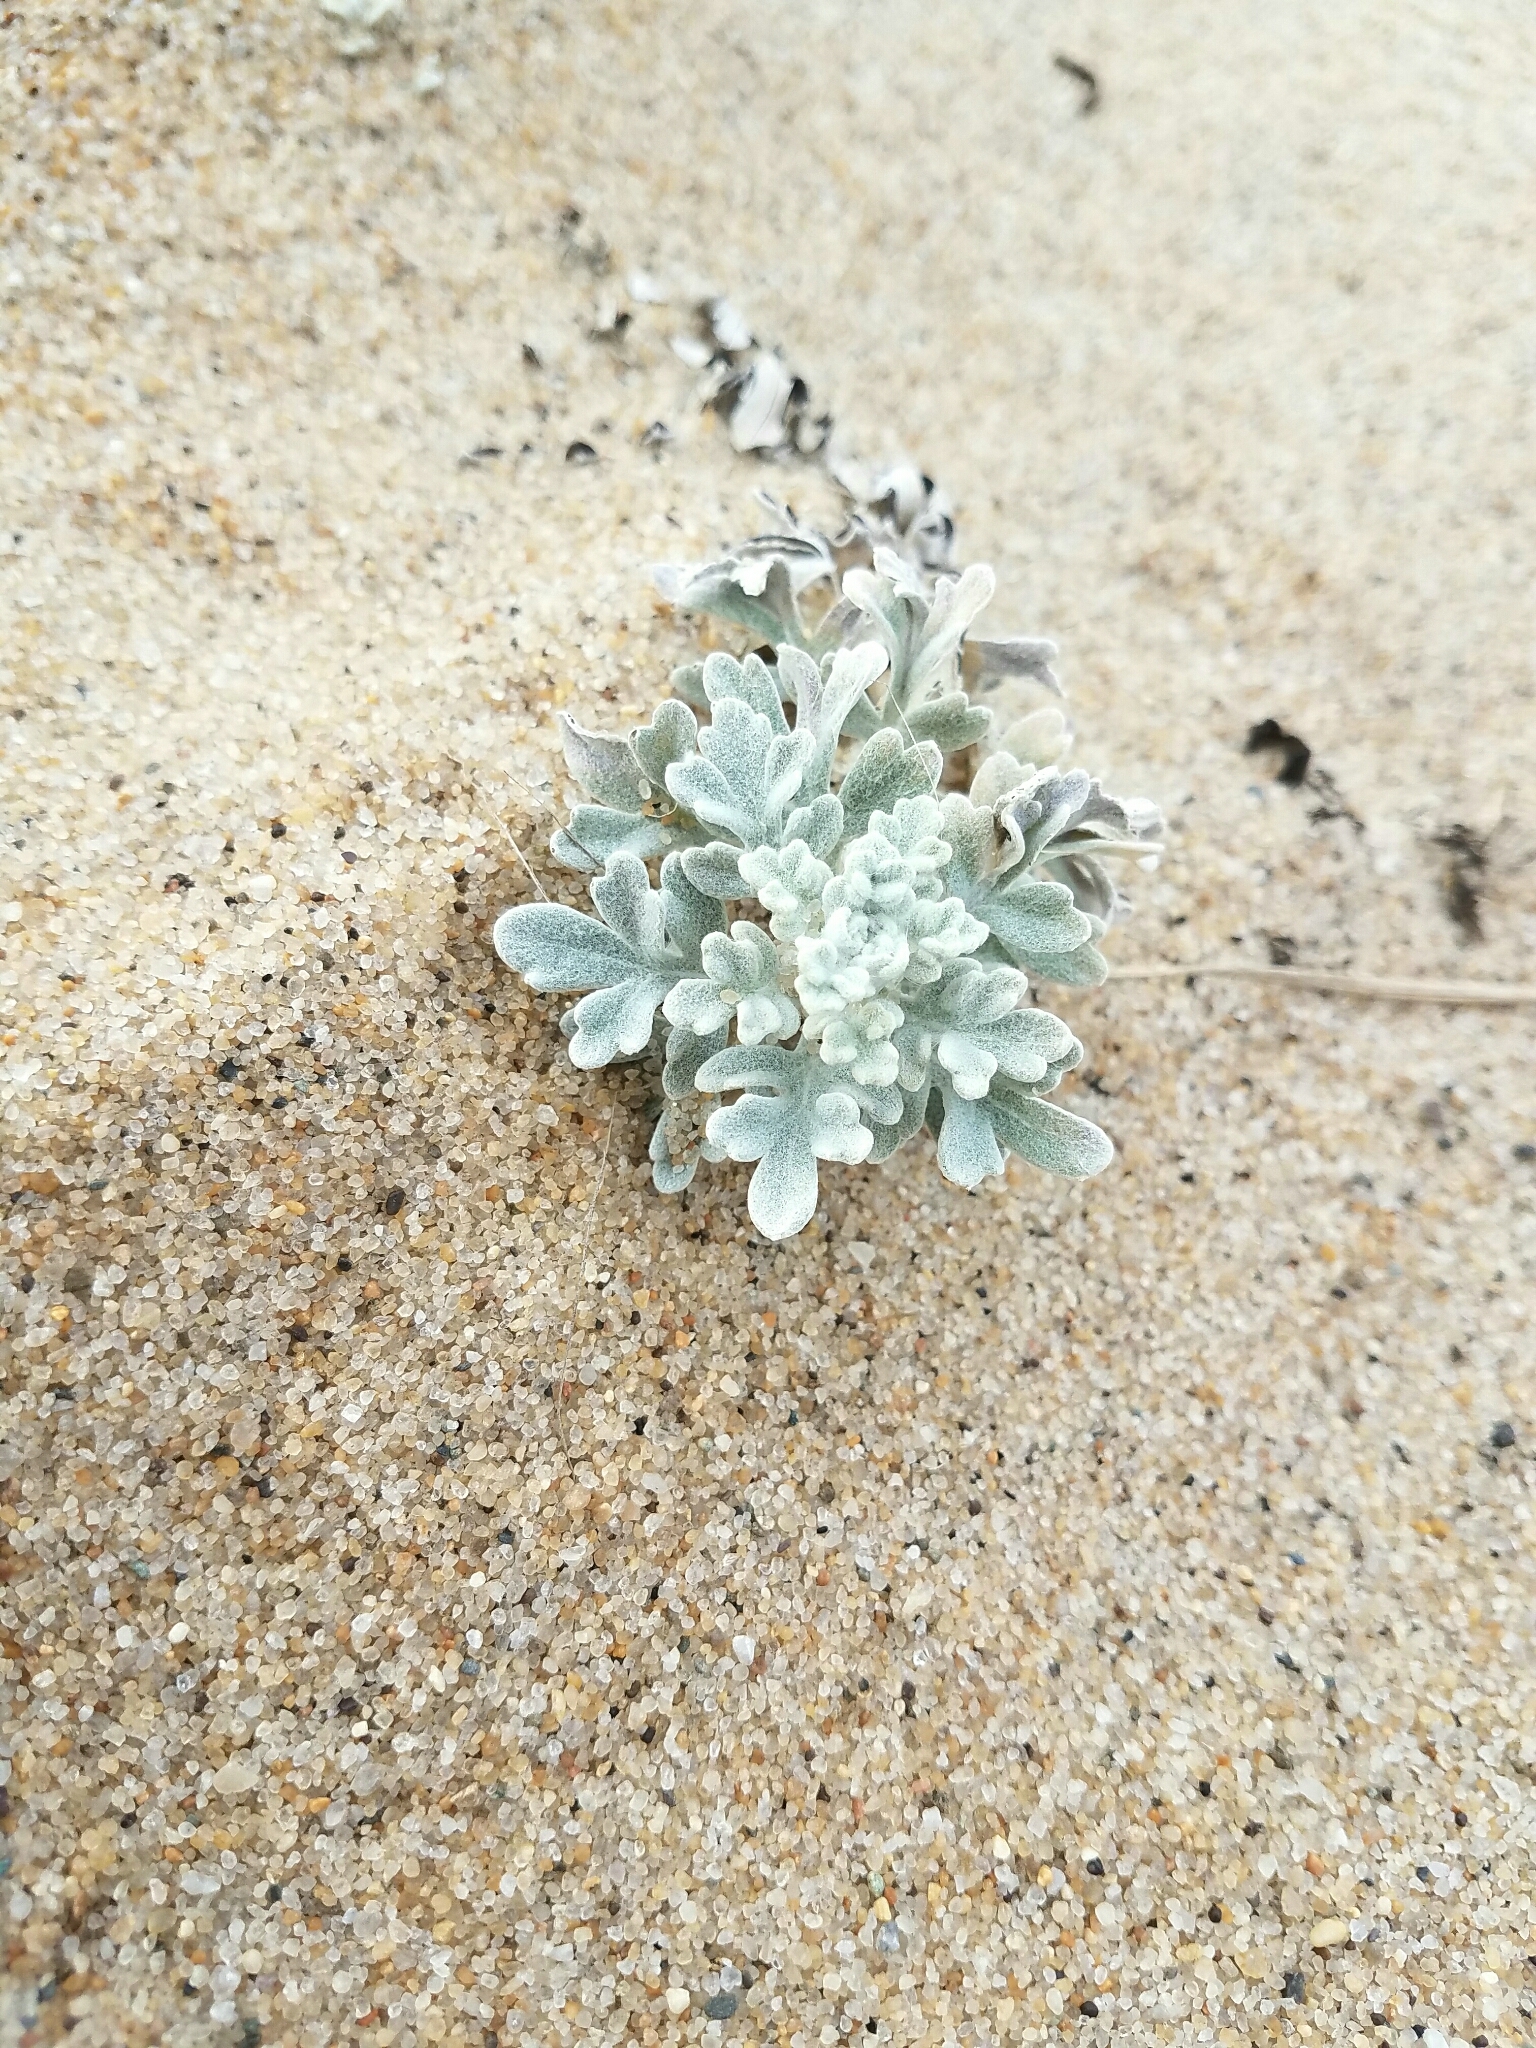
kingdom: Plantae
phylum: Tracheophyta
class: Magnoliopsida
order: Asterales
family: Asteraceae
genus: Artemisia
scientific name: Artemisia stelleriana
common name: Beach wormwood
